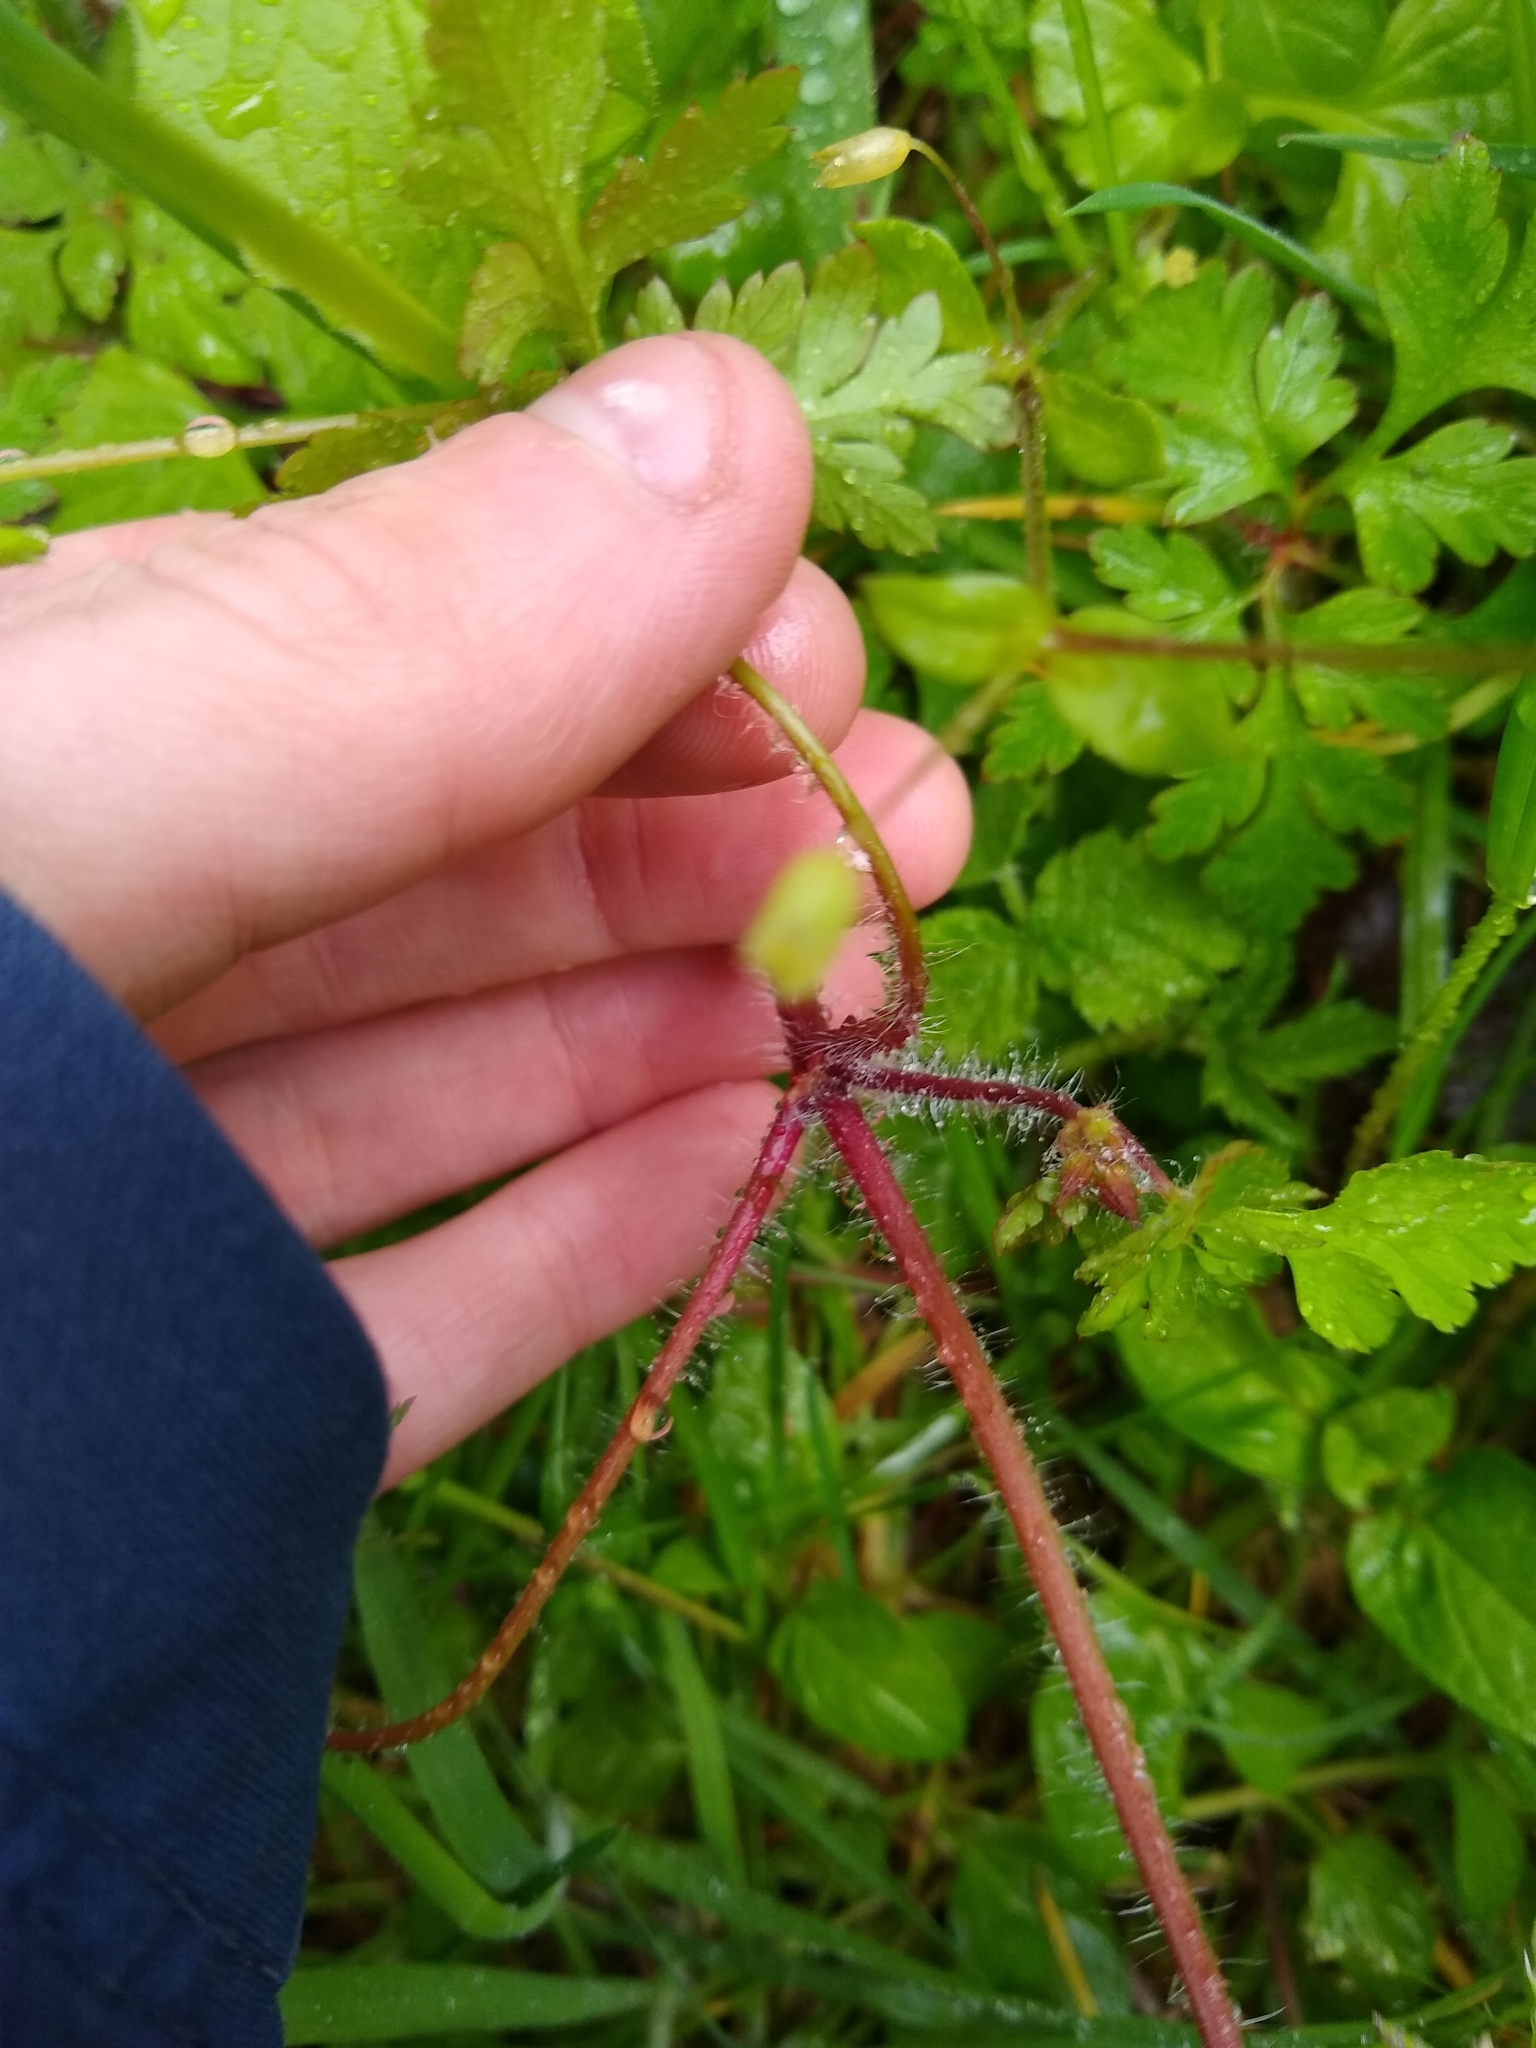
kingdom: Plantae
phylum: Tracheophyta
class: Magnoliopsida
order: Geraniales
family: Geraniaceae
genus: Geranium
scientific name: Geranium robertianum
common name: Herb-robert
